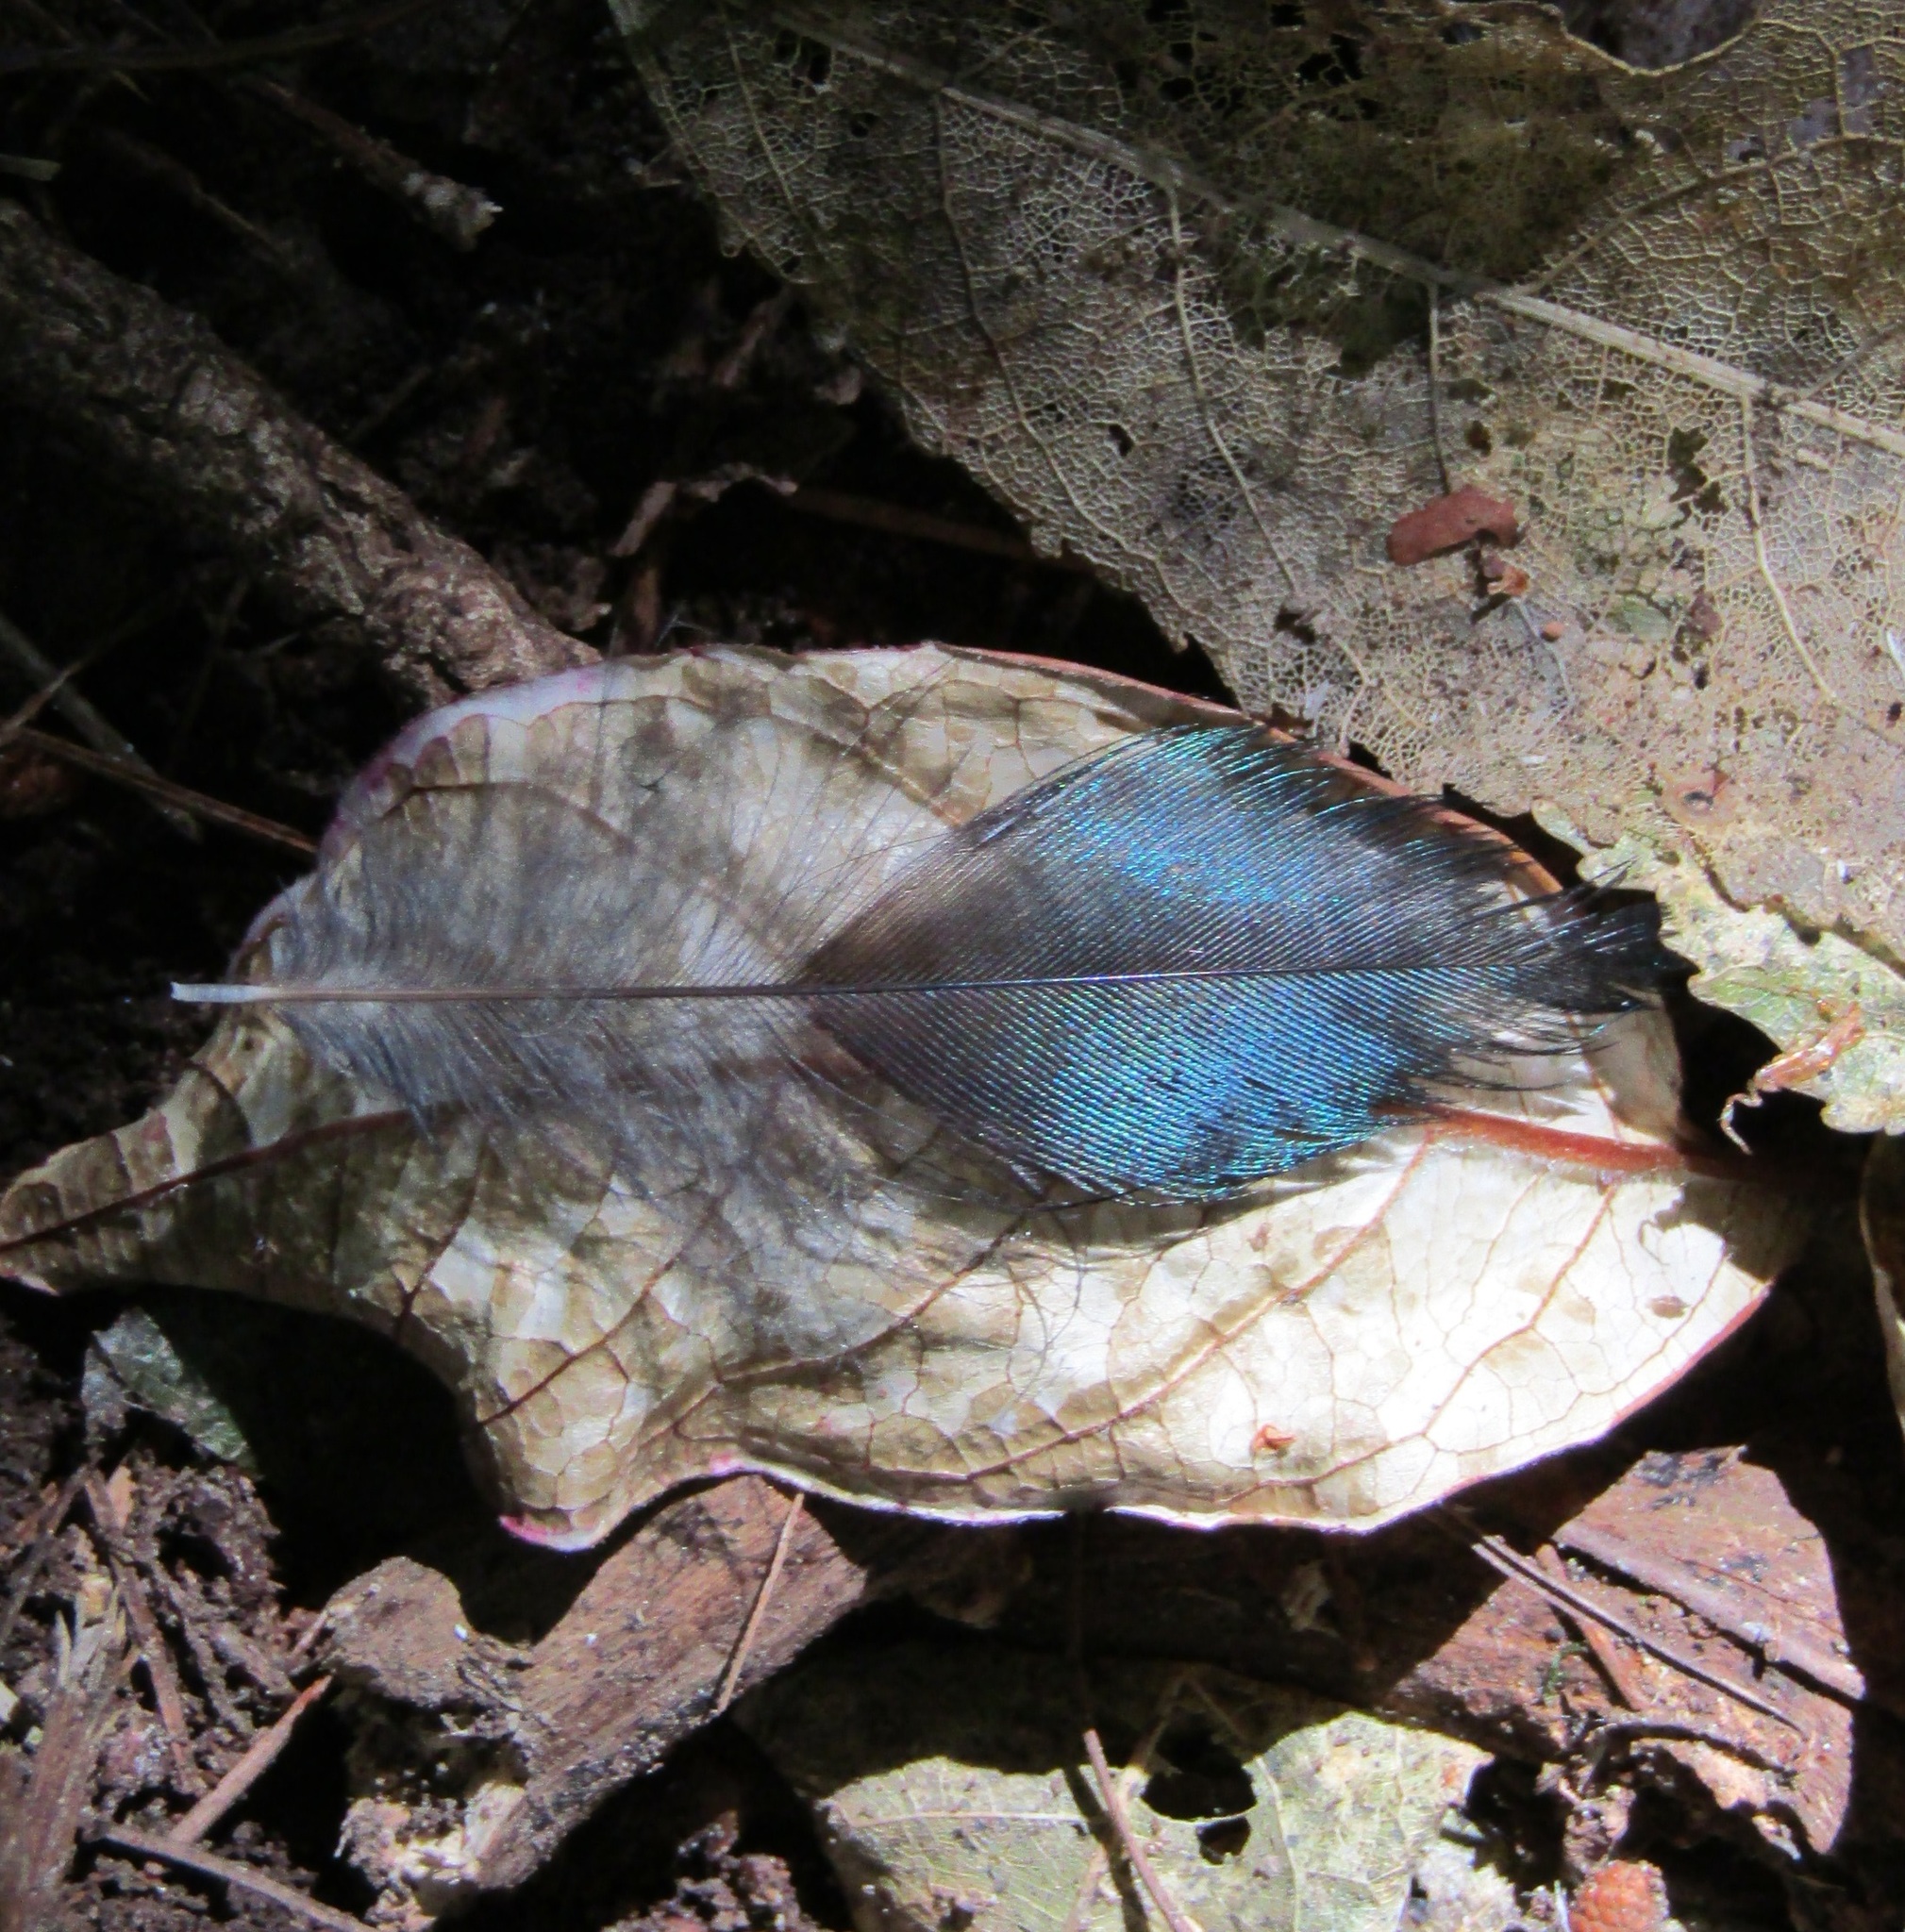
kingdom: Animalia
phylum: Chordata
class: Aves
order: Passeriformes
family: Meliphagidae
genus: Prosthemadera
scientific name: Prosthemadera novaeseelandiae
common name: Tui
